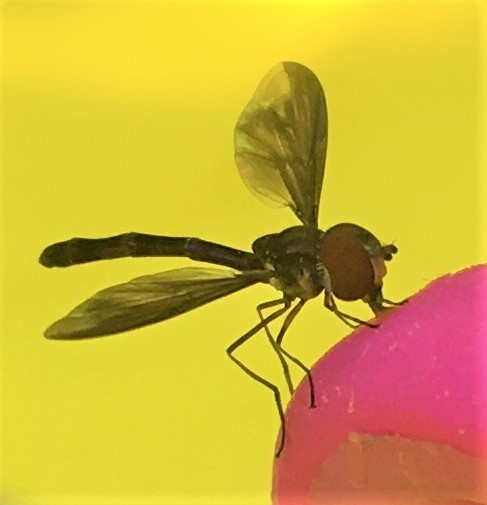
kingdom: Animalia
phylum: Arthropoda
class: Insecta
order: Diptera
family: Syrphidae
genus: Ocyptamus
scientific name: Ocyptamus fuscipennis
